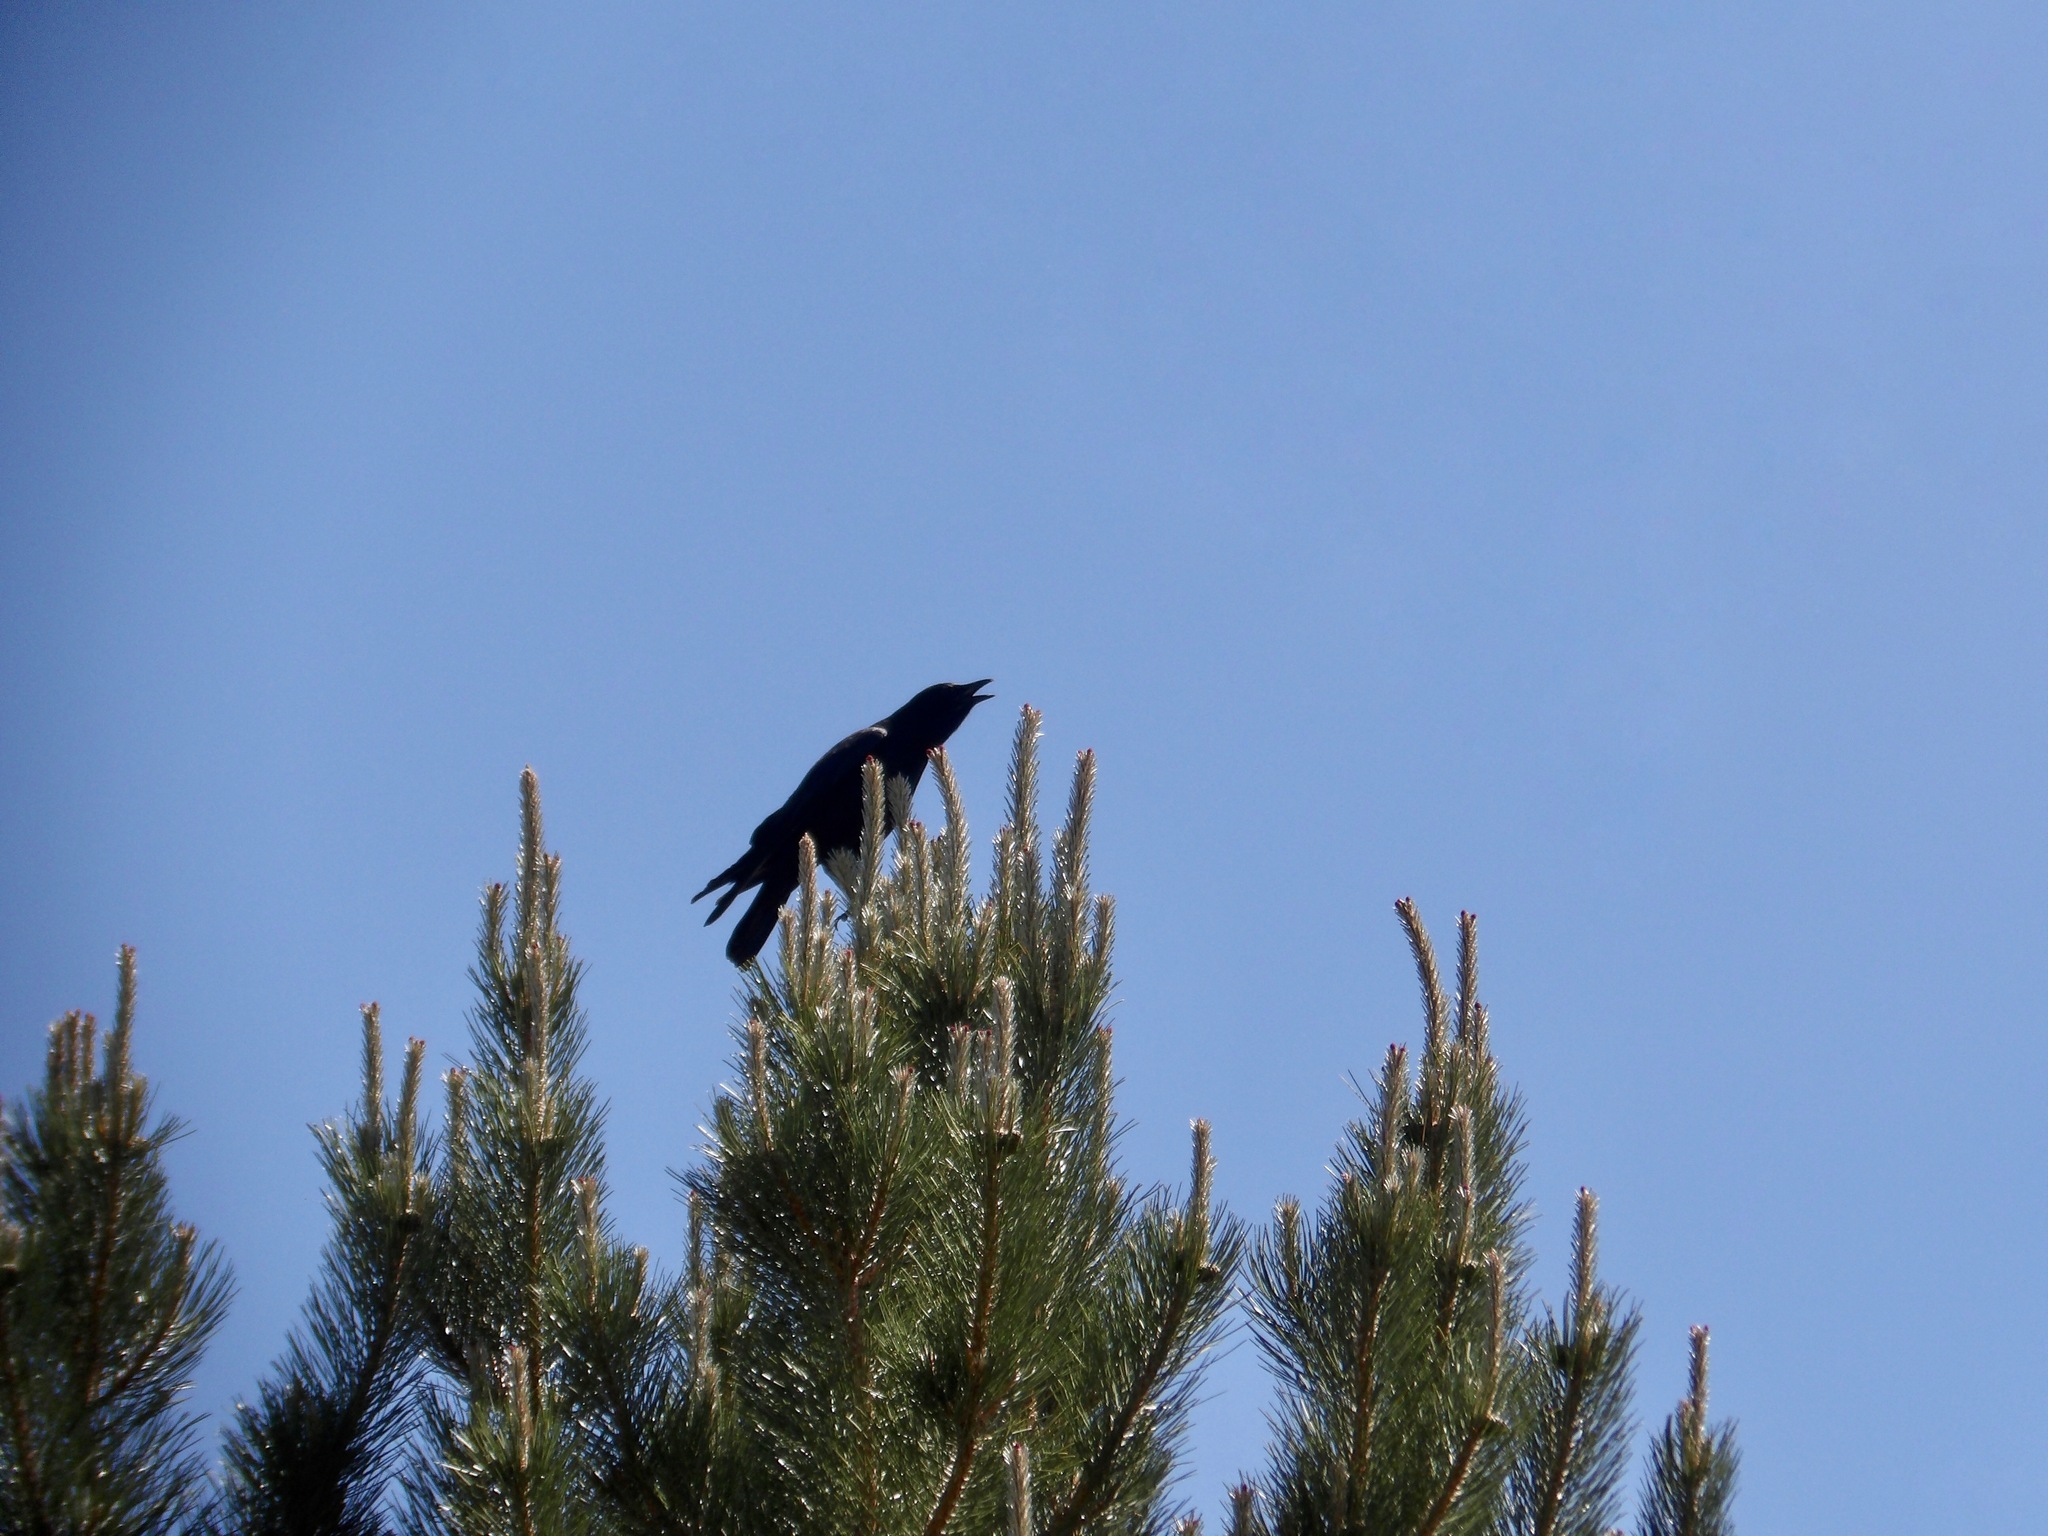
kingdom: Animalia
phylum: Chordata
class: Aves
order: Passeriformes
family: Corvidae
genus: Corvus
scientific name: Corvus brachyrhynchos
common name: American crow
